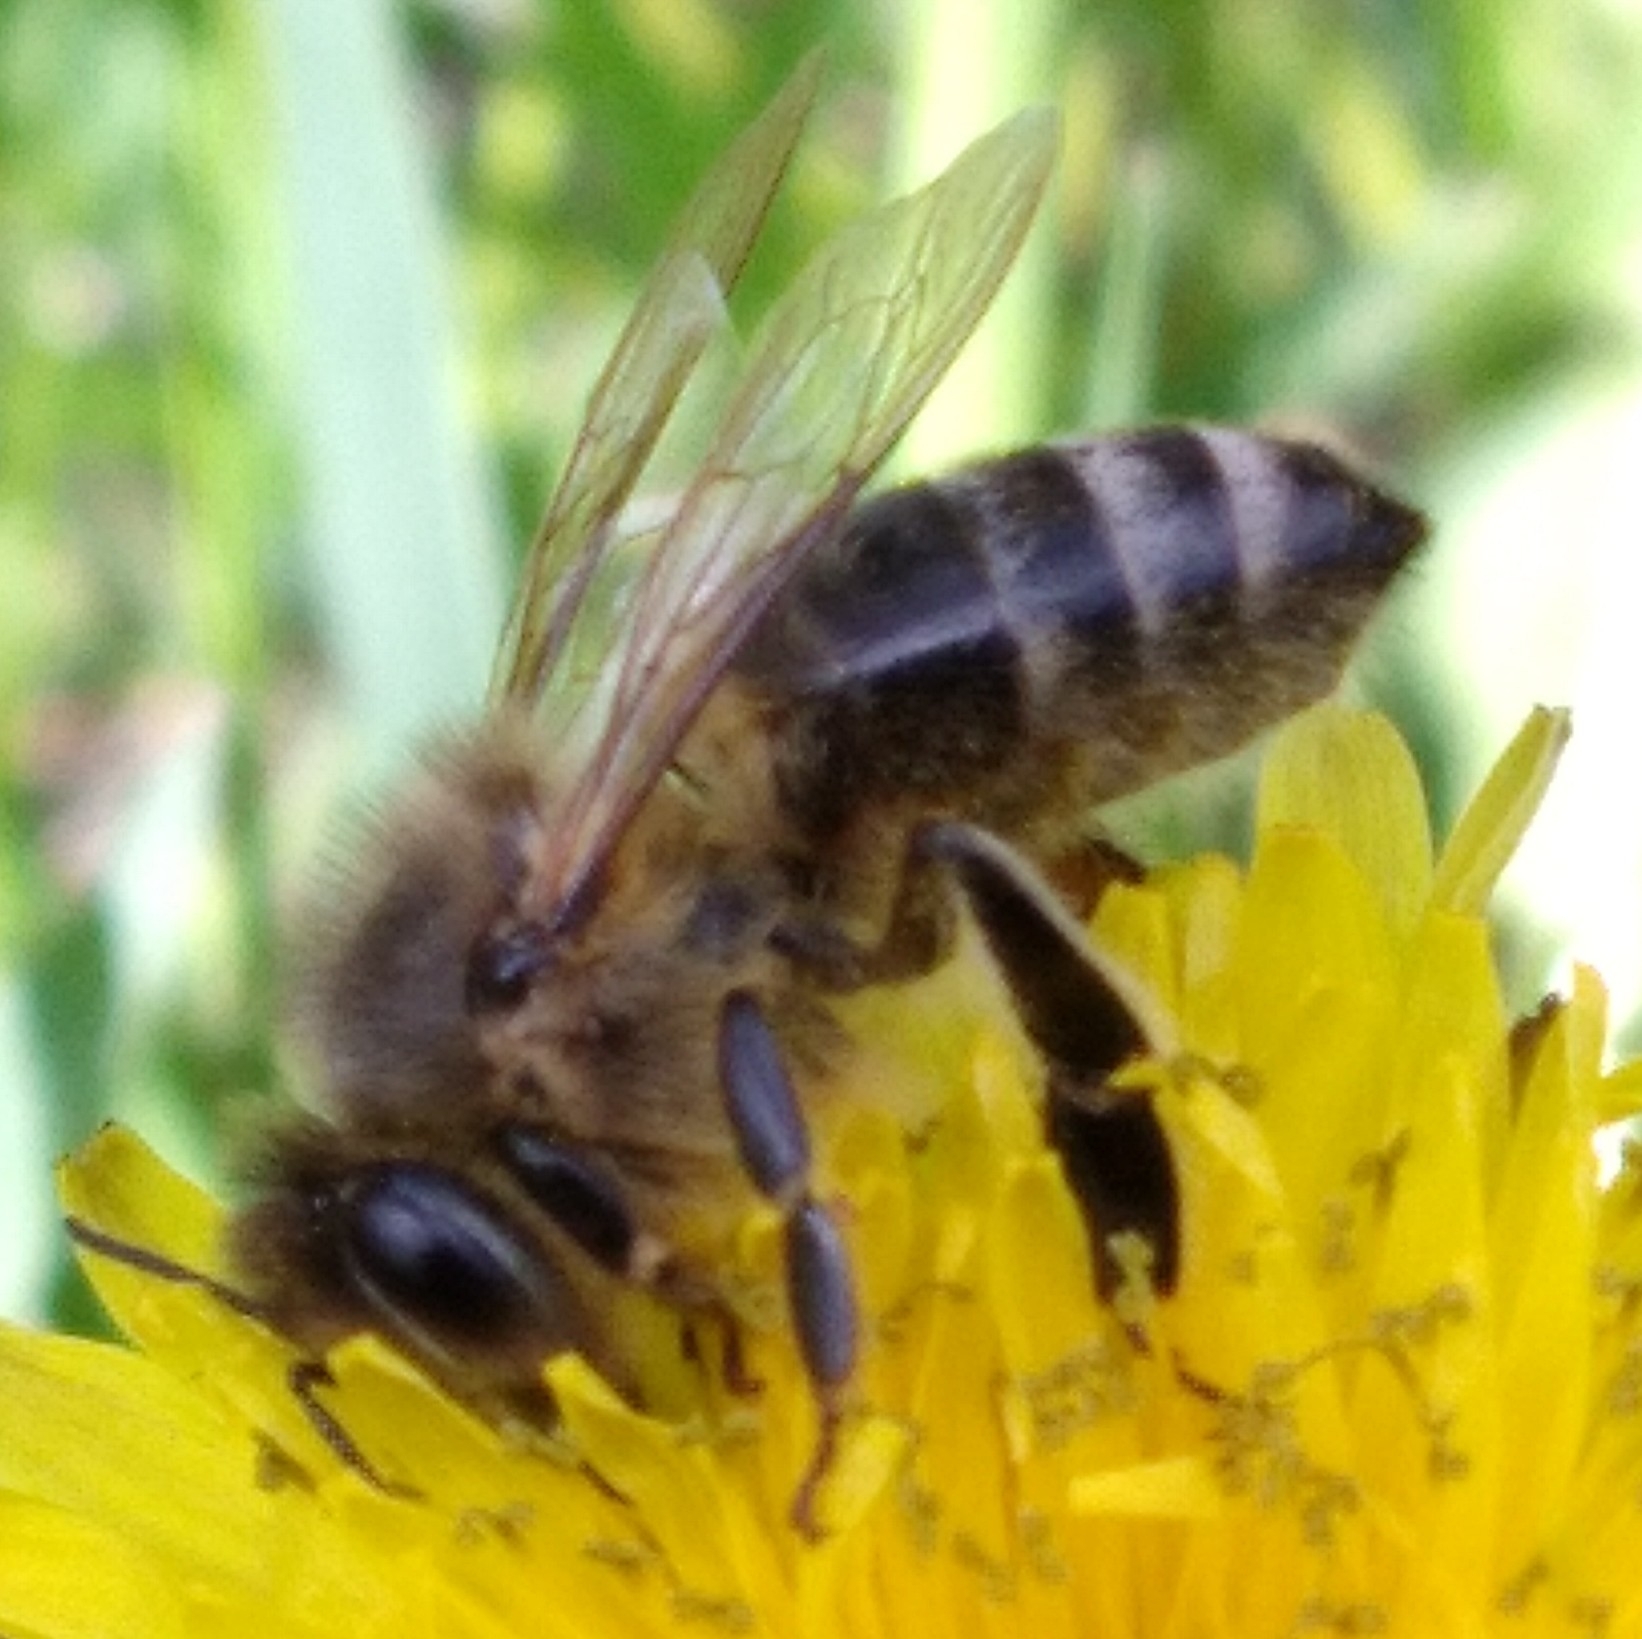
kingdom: Animalia
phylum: Arthropoda
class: Insecta
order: Hymenoptera
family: Apidae
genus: Apis
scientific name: Apis mellifera
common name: Honey bee
